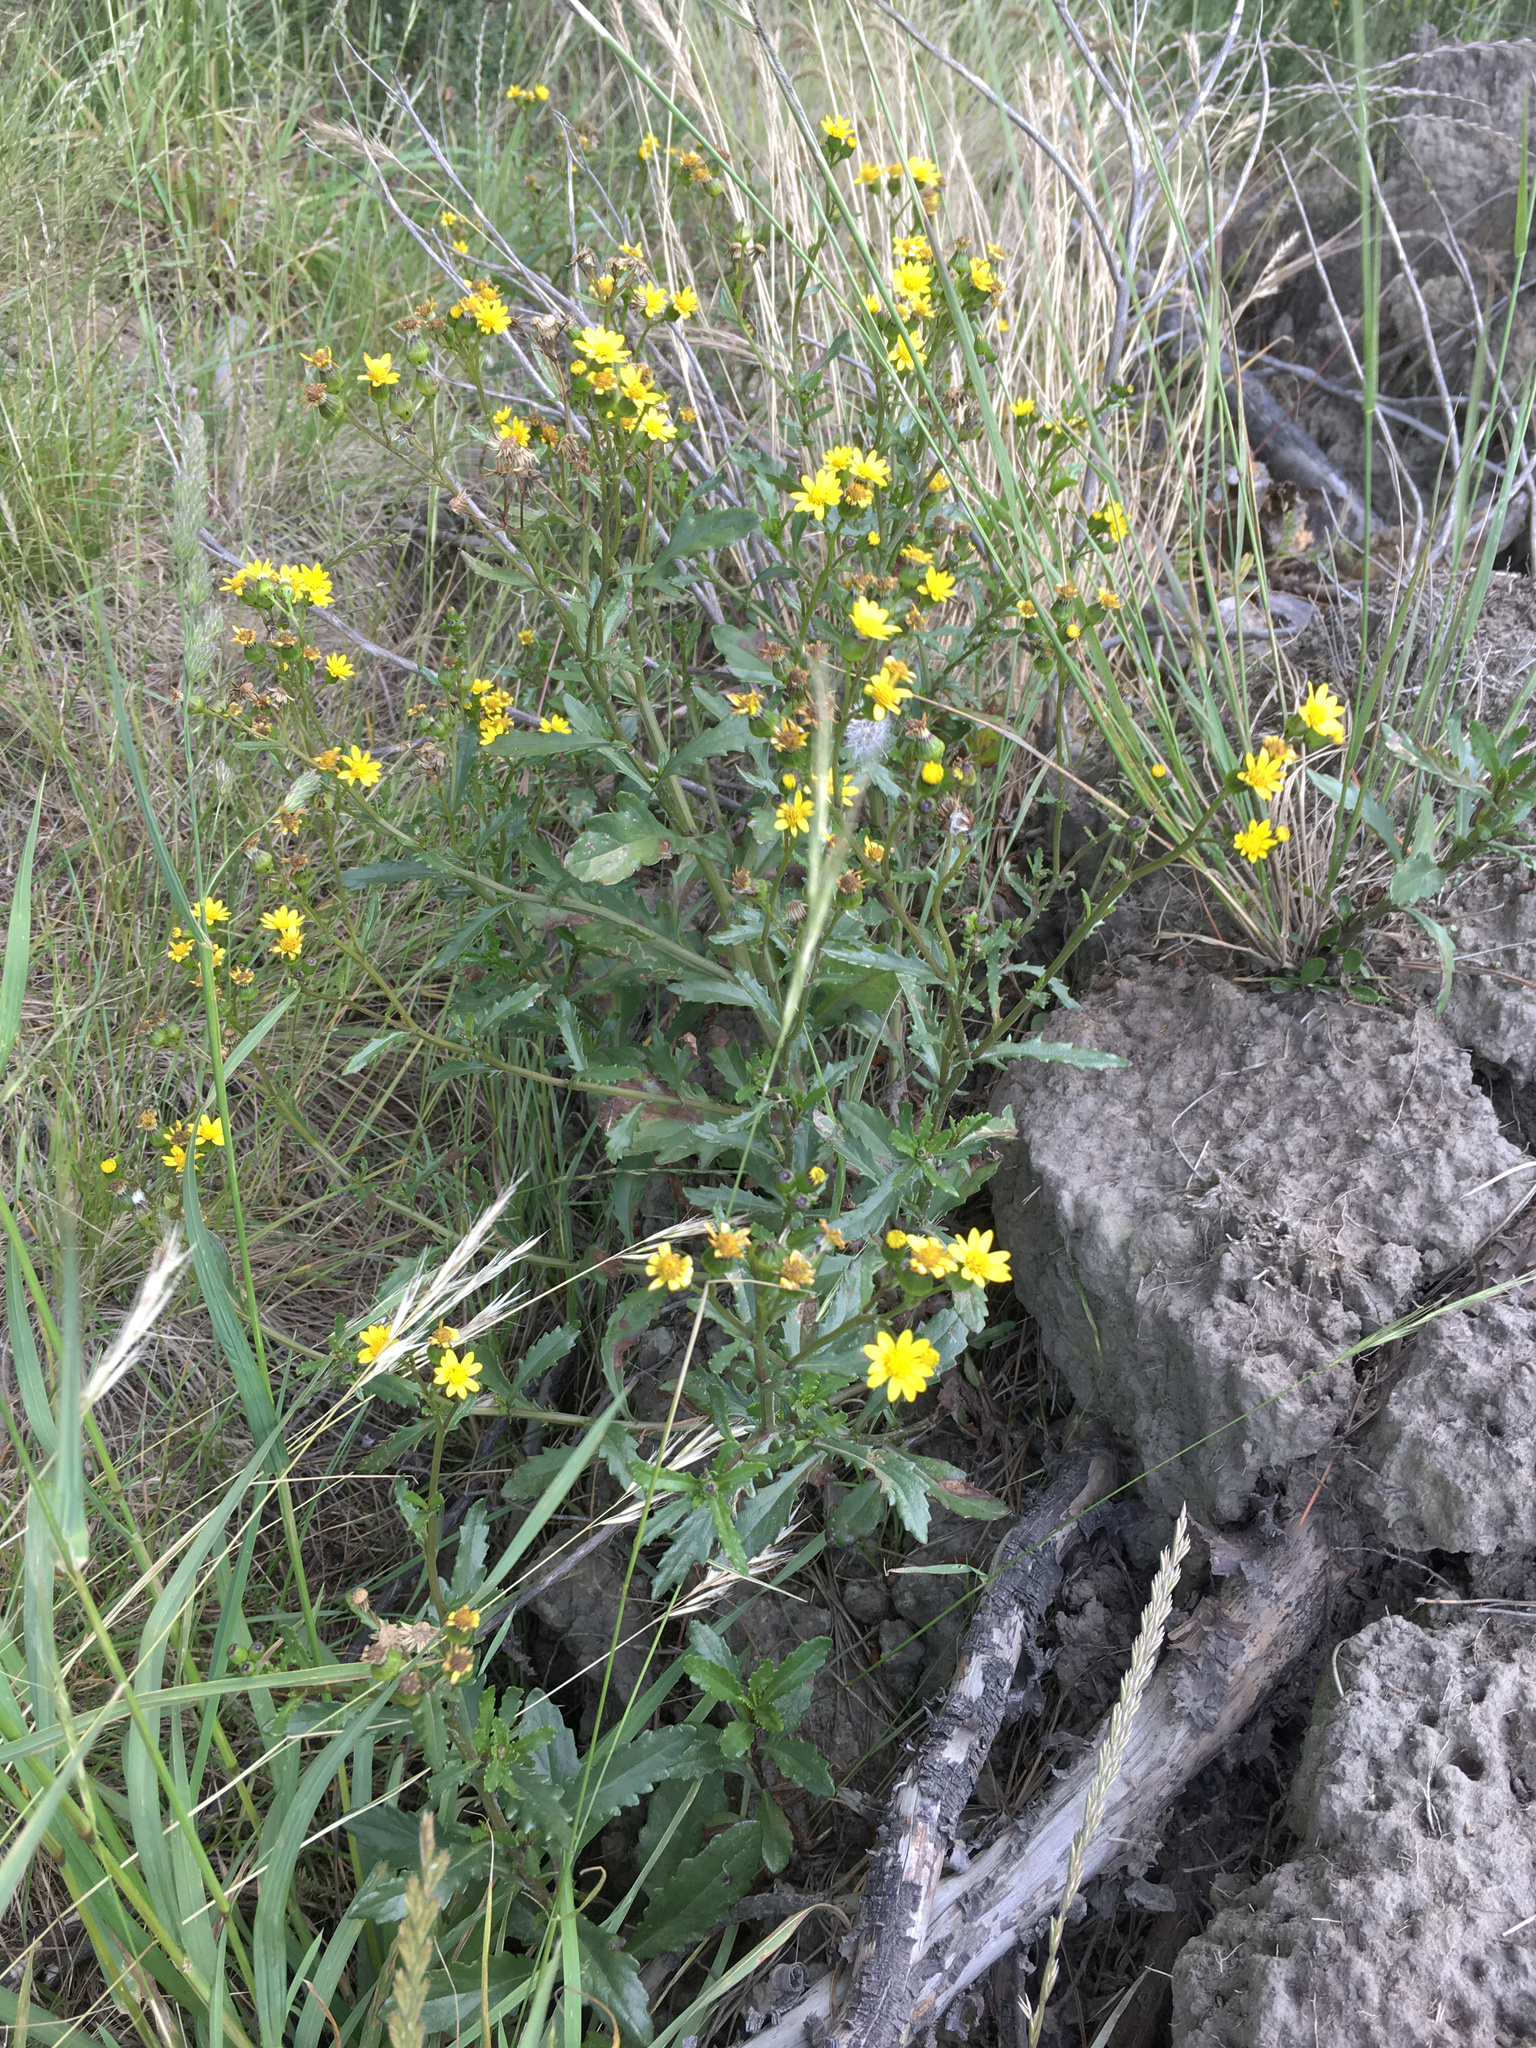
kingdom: Plantae
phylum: Tracheophyta
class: Magnoliopsida
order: Asterales
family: Asteraceae
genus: Senecio
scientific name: Senecio matatini
